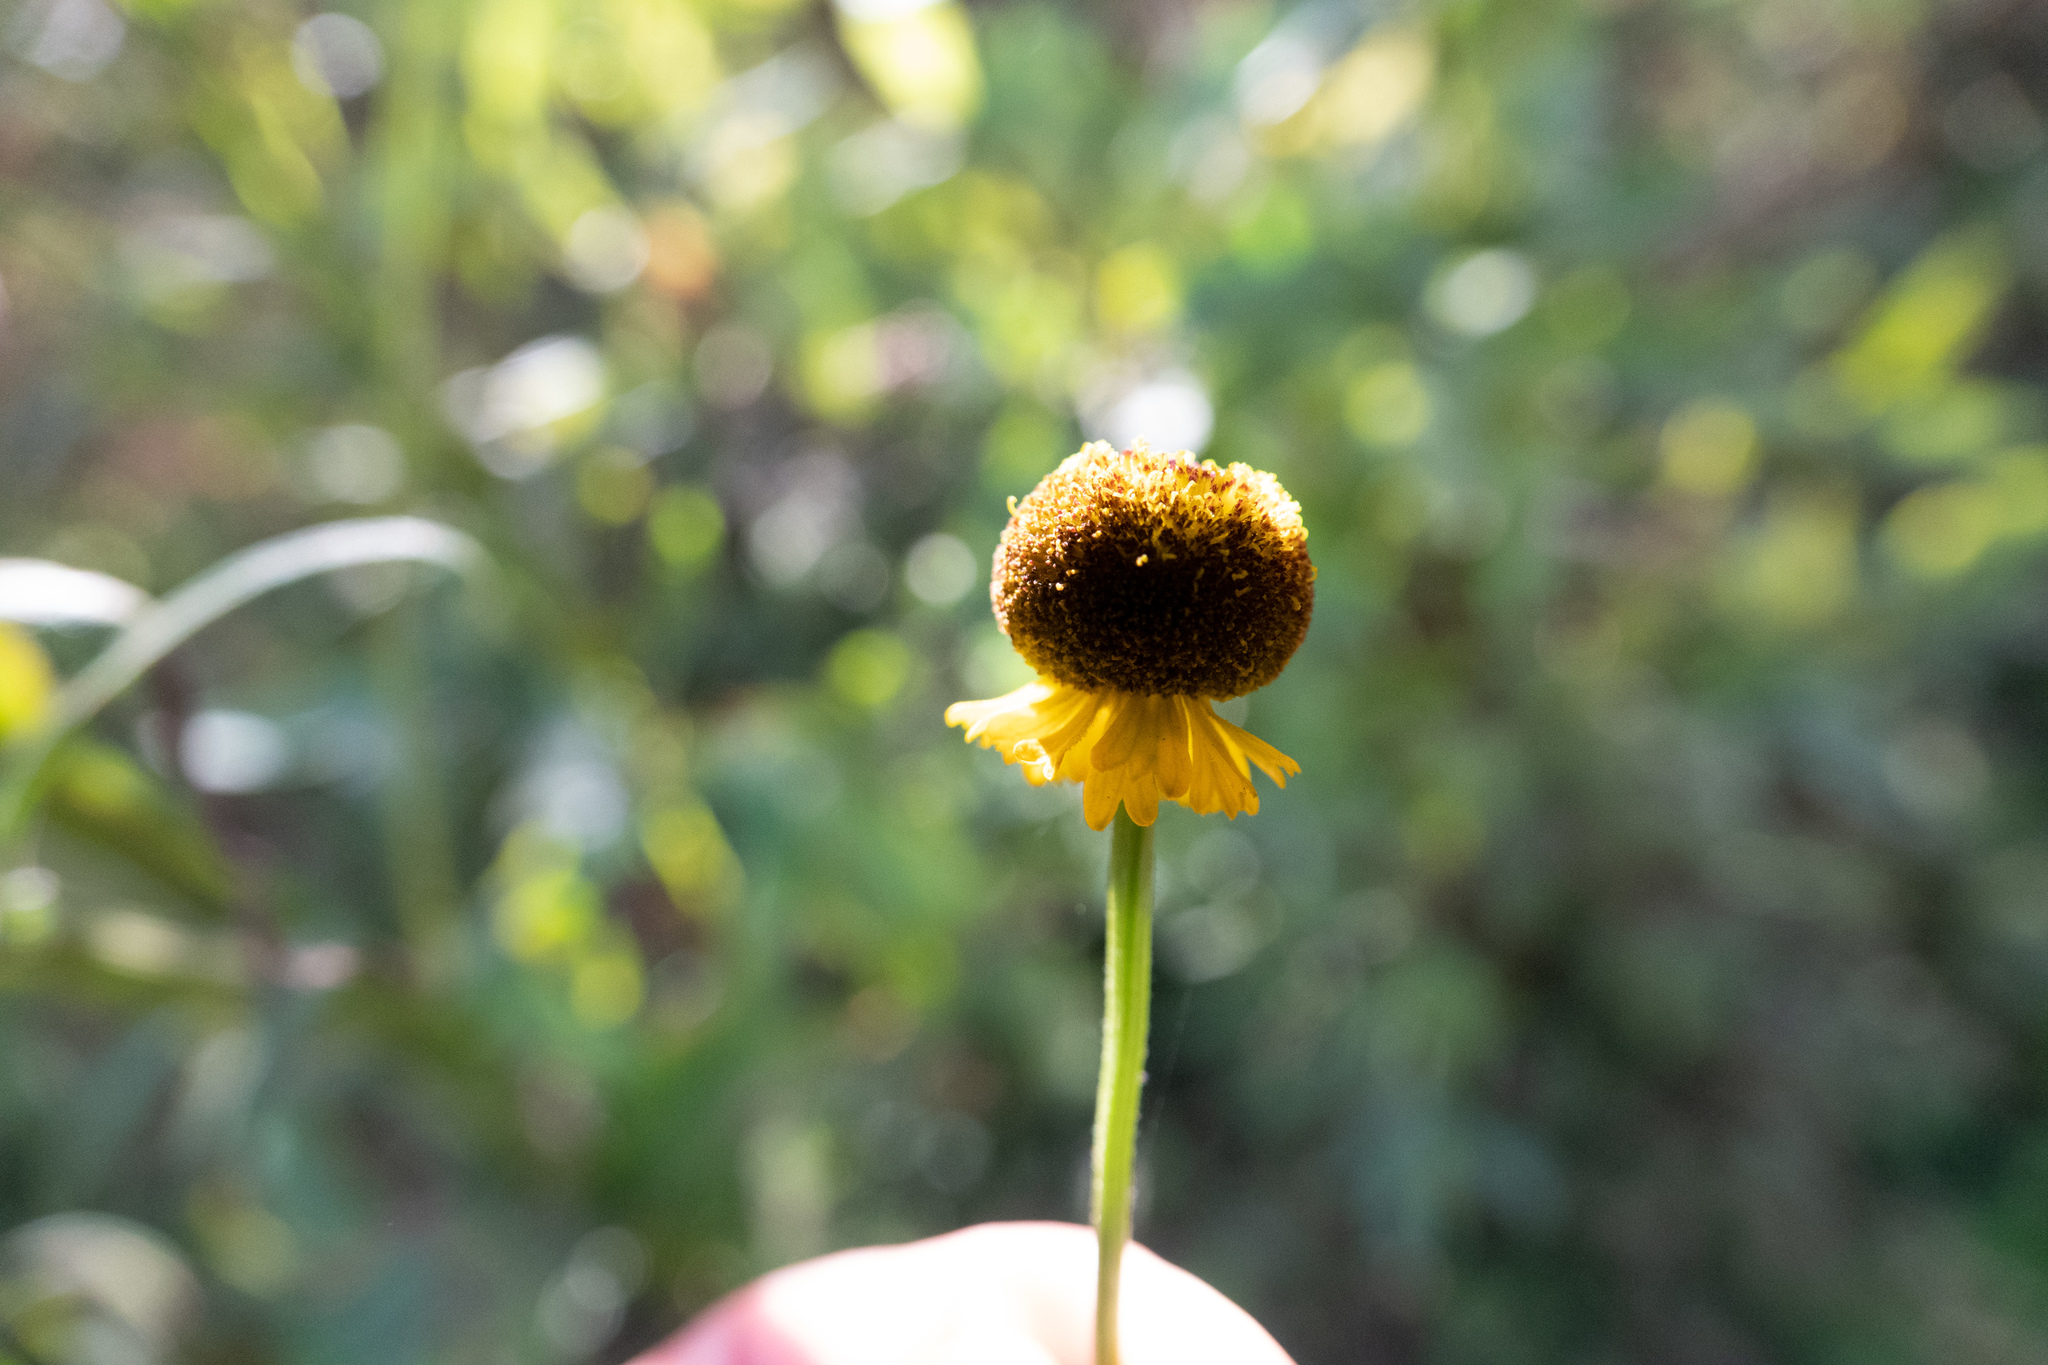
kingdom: Plantae
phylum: Tracheophyta
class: Magnoliopsida
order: Asterales
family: Asteraceae
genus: Helenium
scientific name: Helenium puberulum
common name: Sneezewort
